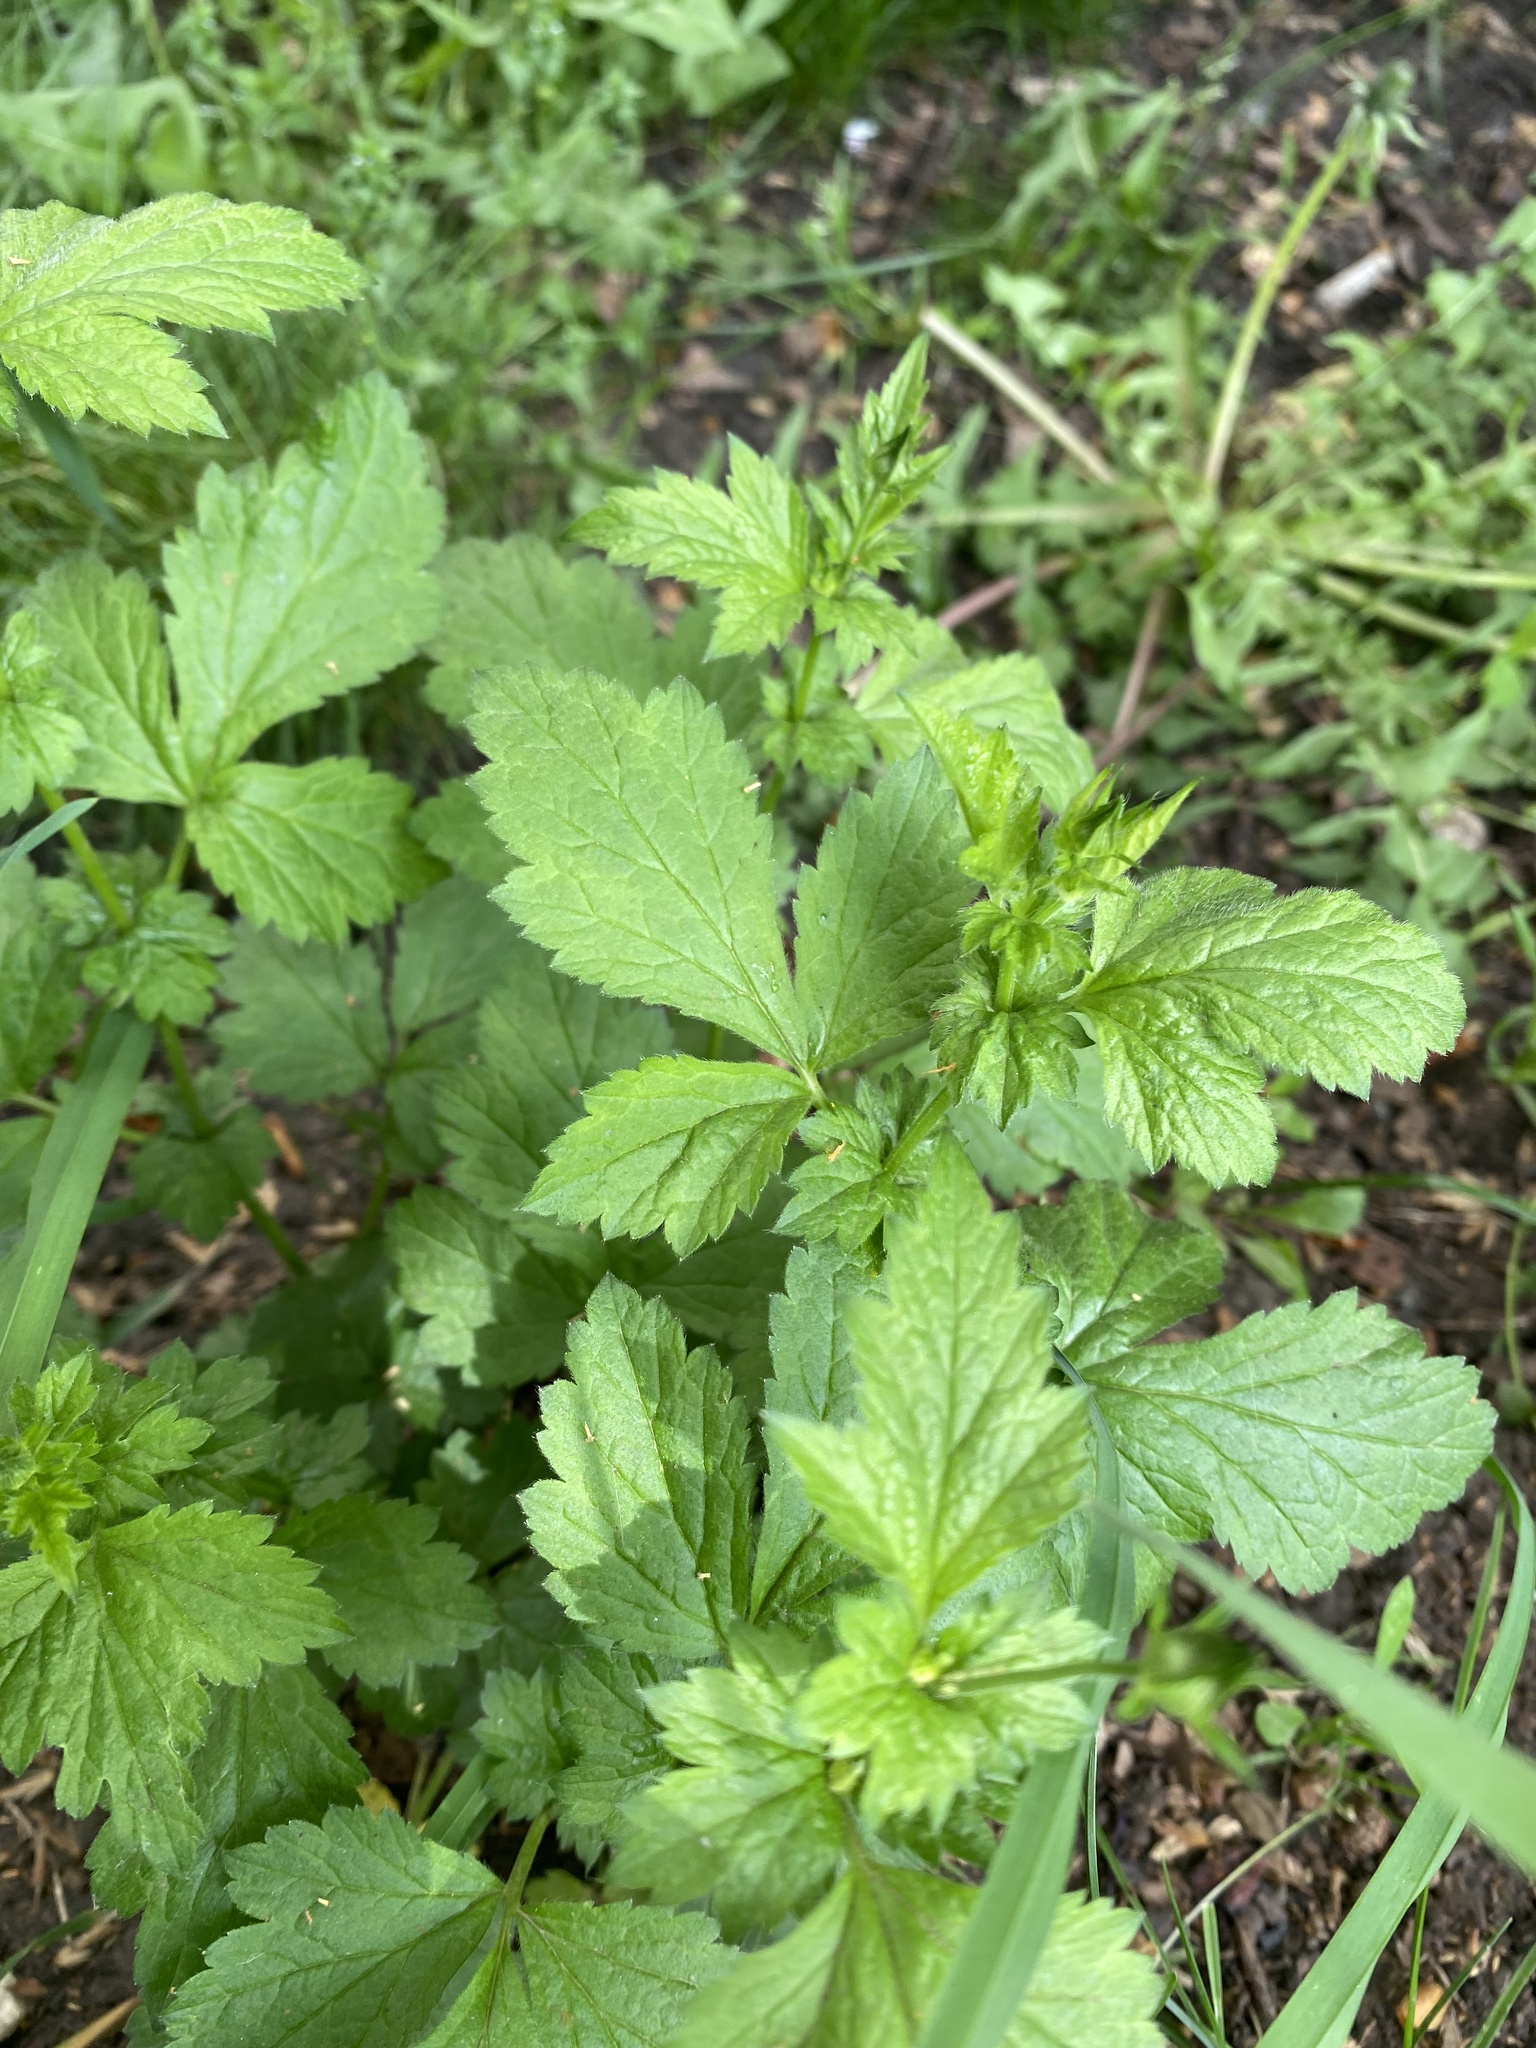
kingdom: Plantae
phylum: Tracheophyta
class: Magnoliopsida
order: Rosales
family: Rosaceae
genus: Geum
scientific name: Geum urbanum
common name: Wood avens
